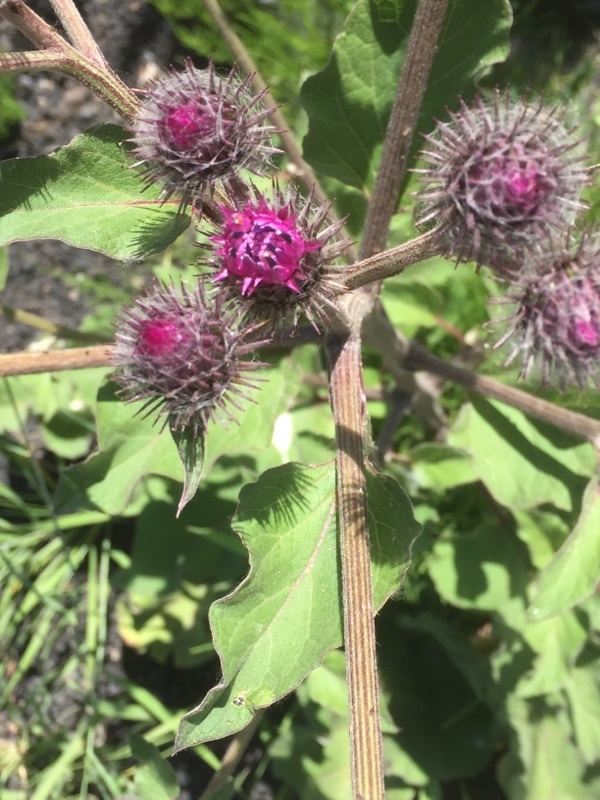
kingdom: Plantae
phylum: Tracheophyta
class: Magnoliopsida
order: Asterales
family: Asteraceae
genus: Arctium
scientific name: Arctium tomentosum
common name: Woolly burdock
